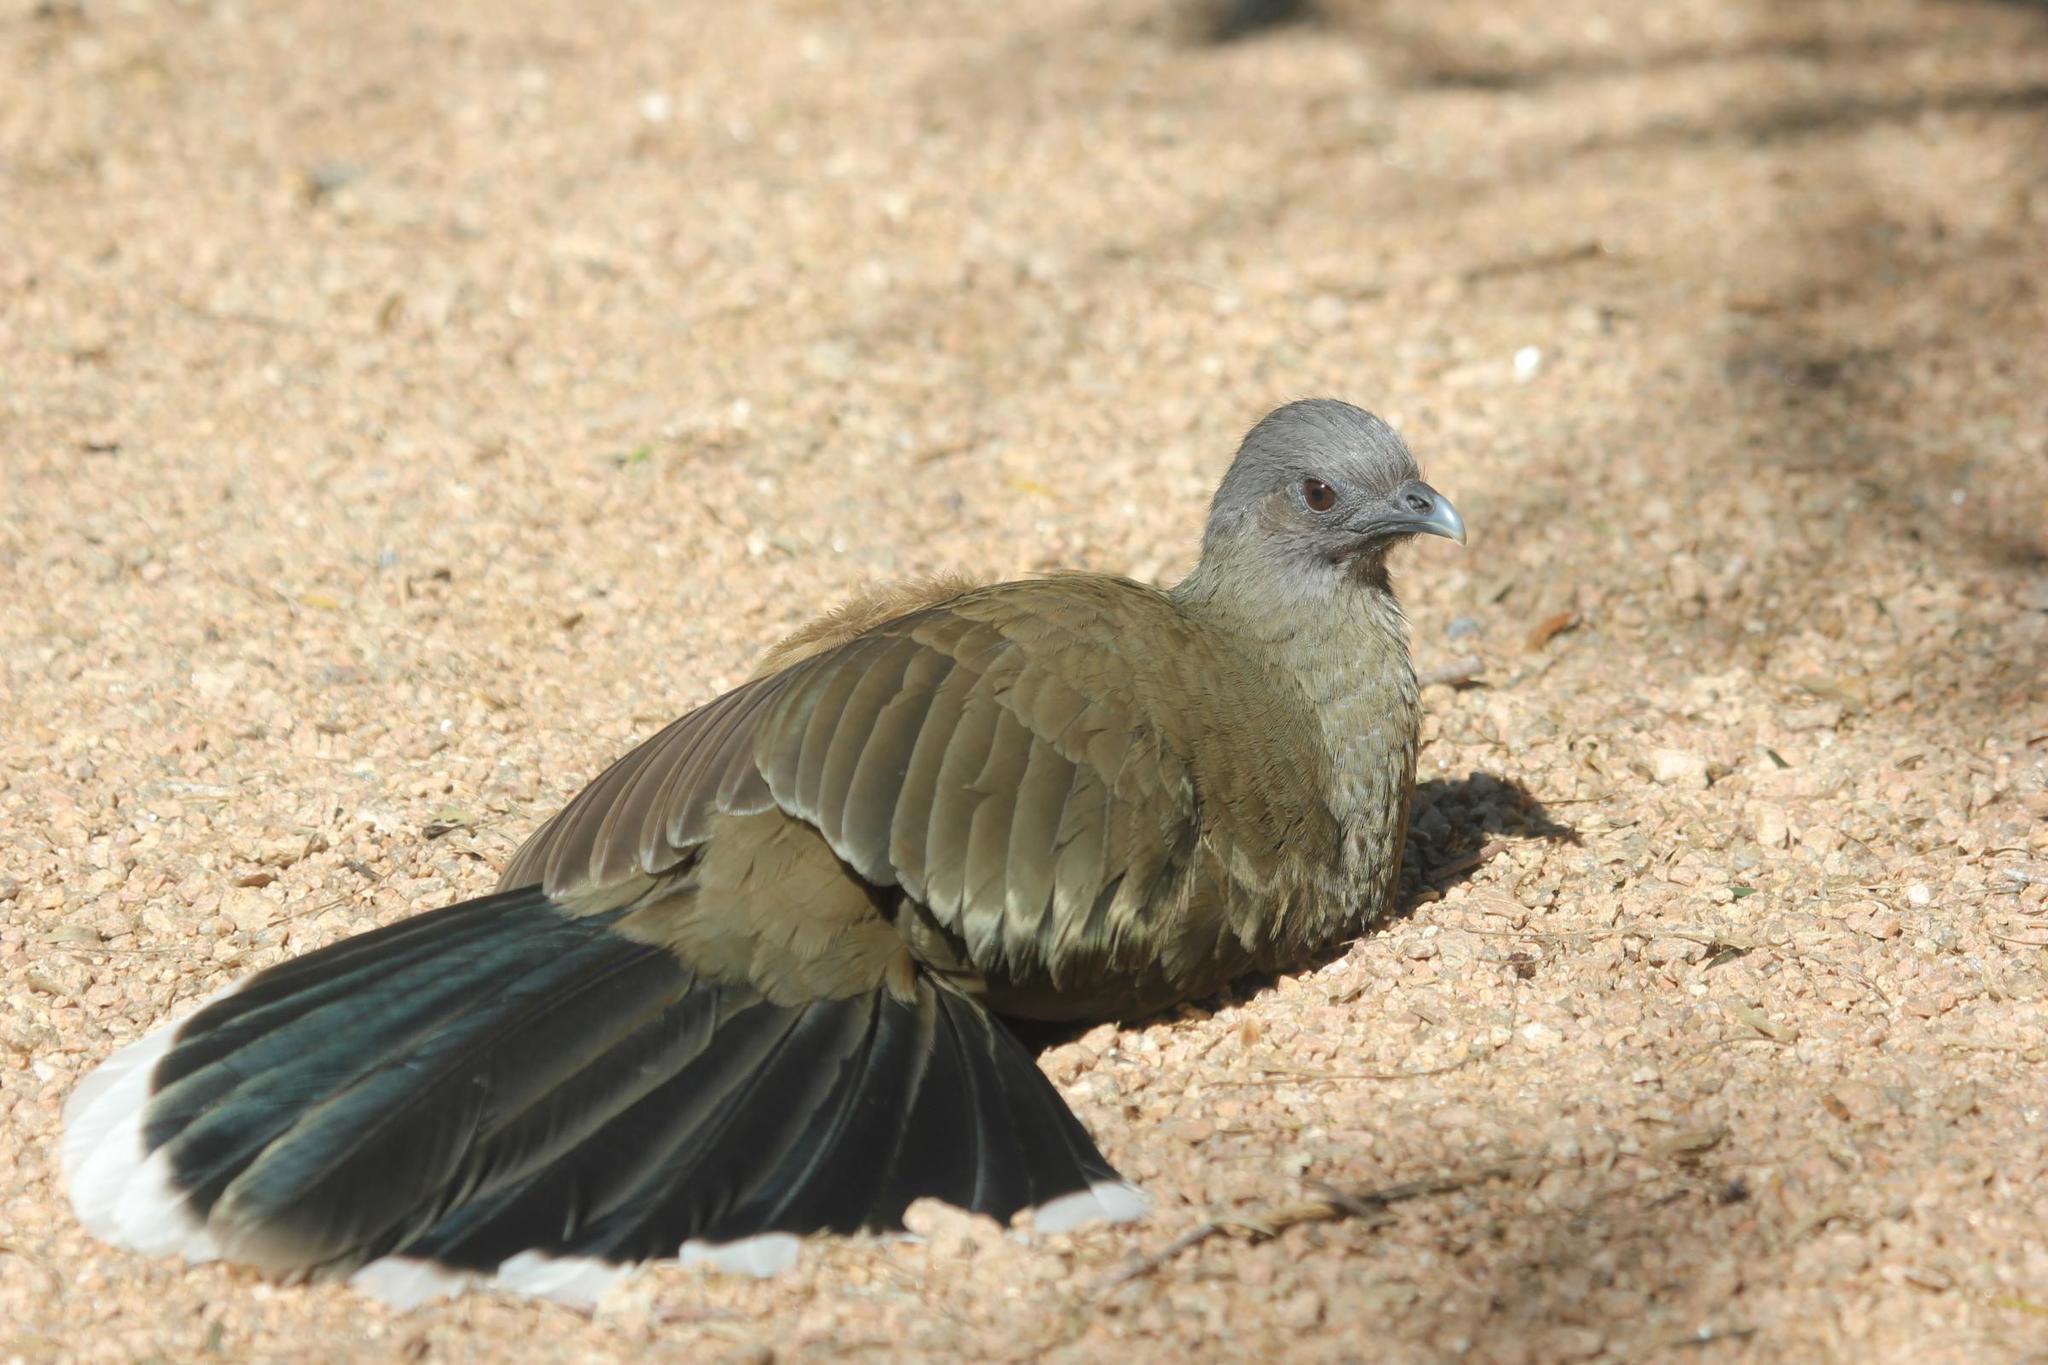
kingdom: Animalia
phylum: Chordata
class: Aves
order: Galliformes
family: Cracidae
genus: Ortalis
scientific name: Ortalis vetula
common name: Plain chachalaca
